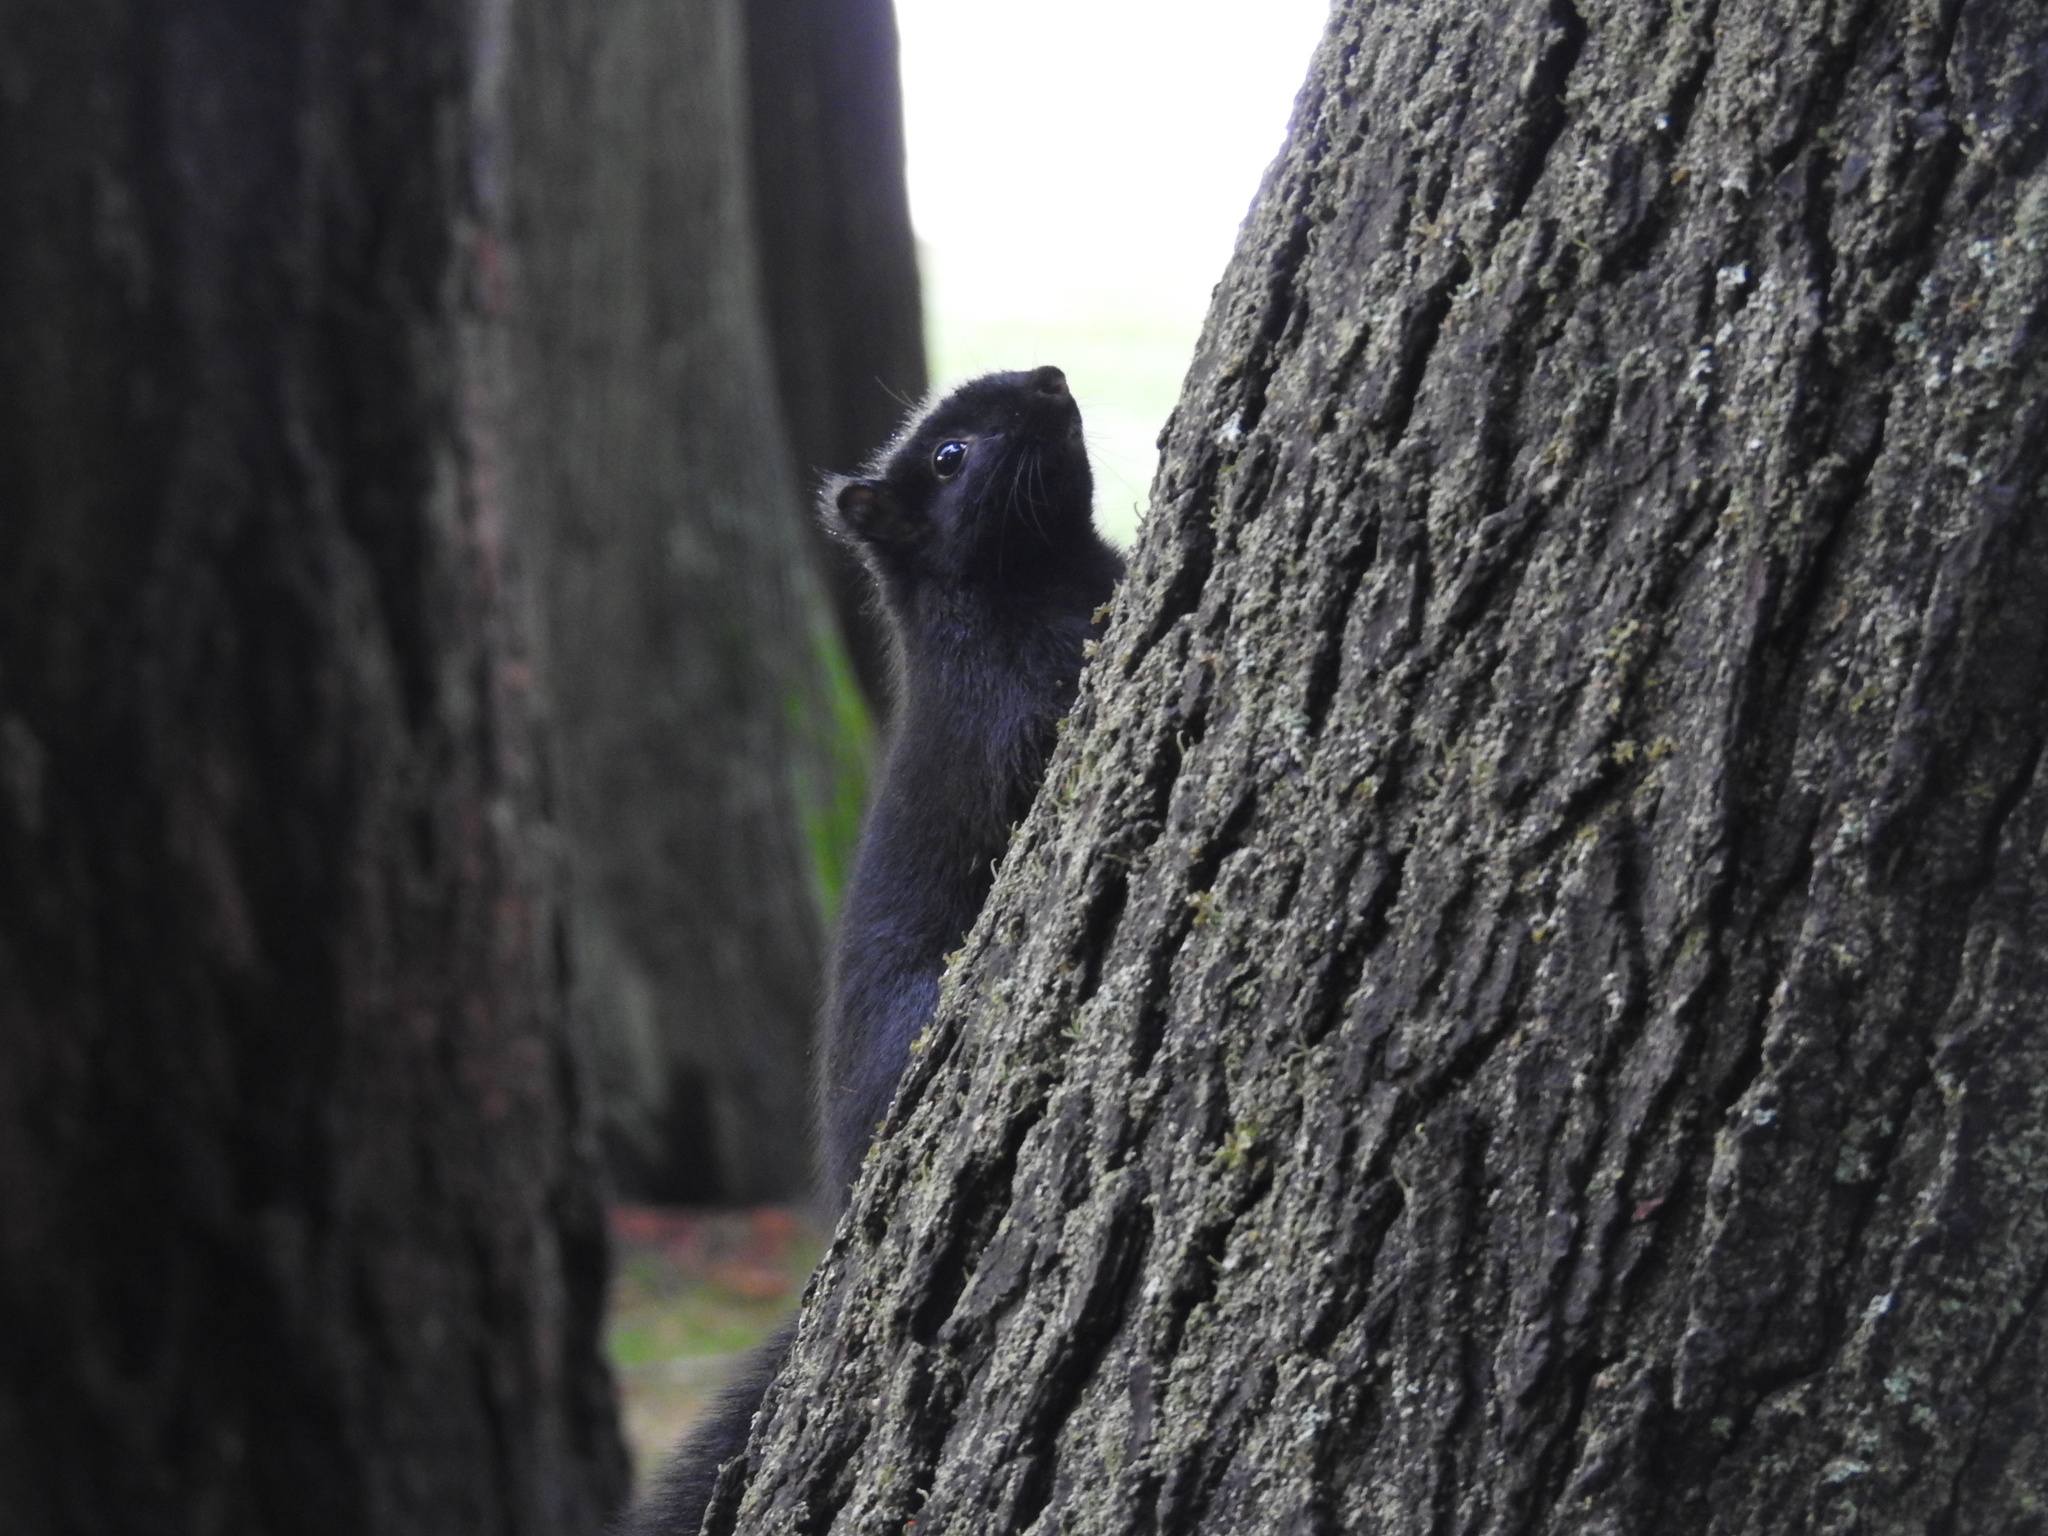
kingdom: Animalia
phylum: Chordata
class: Mammalia
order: Rodentia
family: Sciuridae
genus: Sciurus
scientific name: Sciurus carolinensis
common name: Eastern gray squirrel
